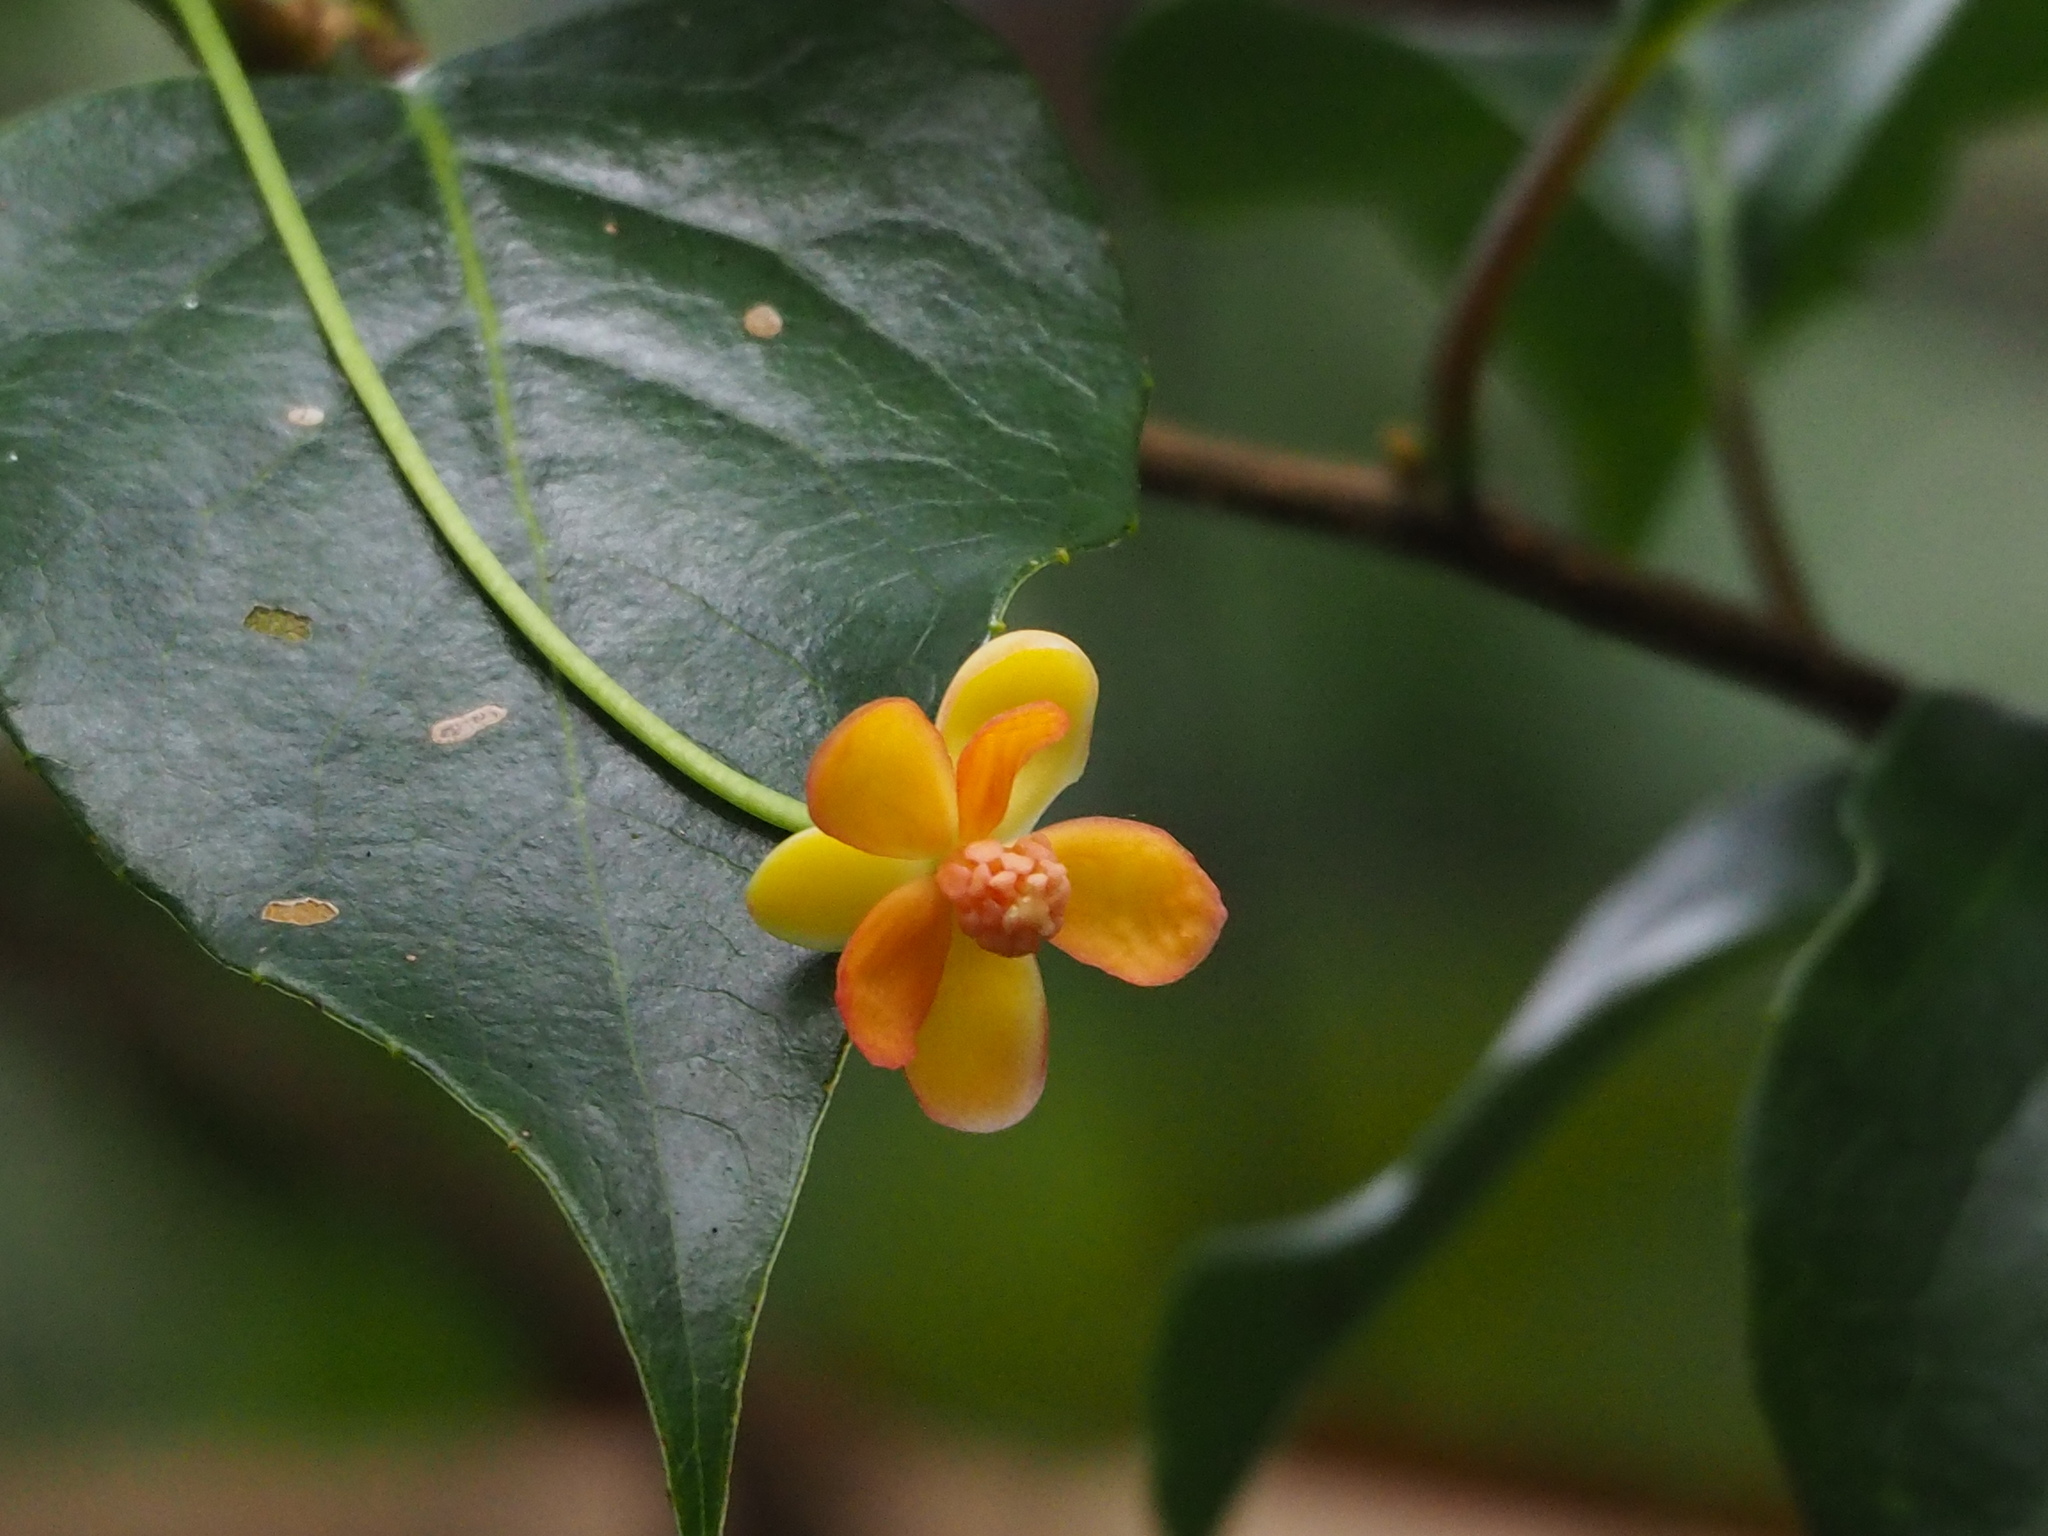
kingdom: Plantae
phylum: Tracheophyta
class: Magnoliopsida
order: Austrobaileyales
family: Schisandraceae
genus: Schisandra
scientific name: Schisandra arisanensis
